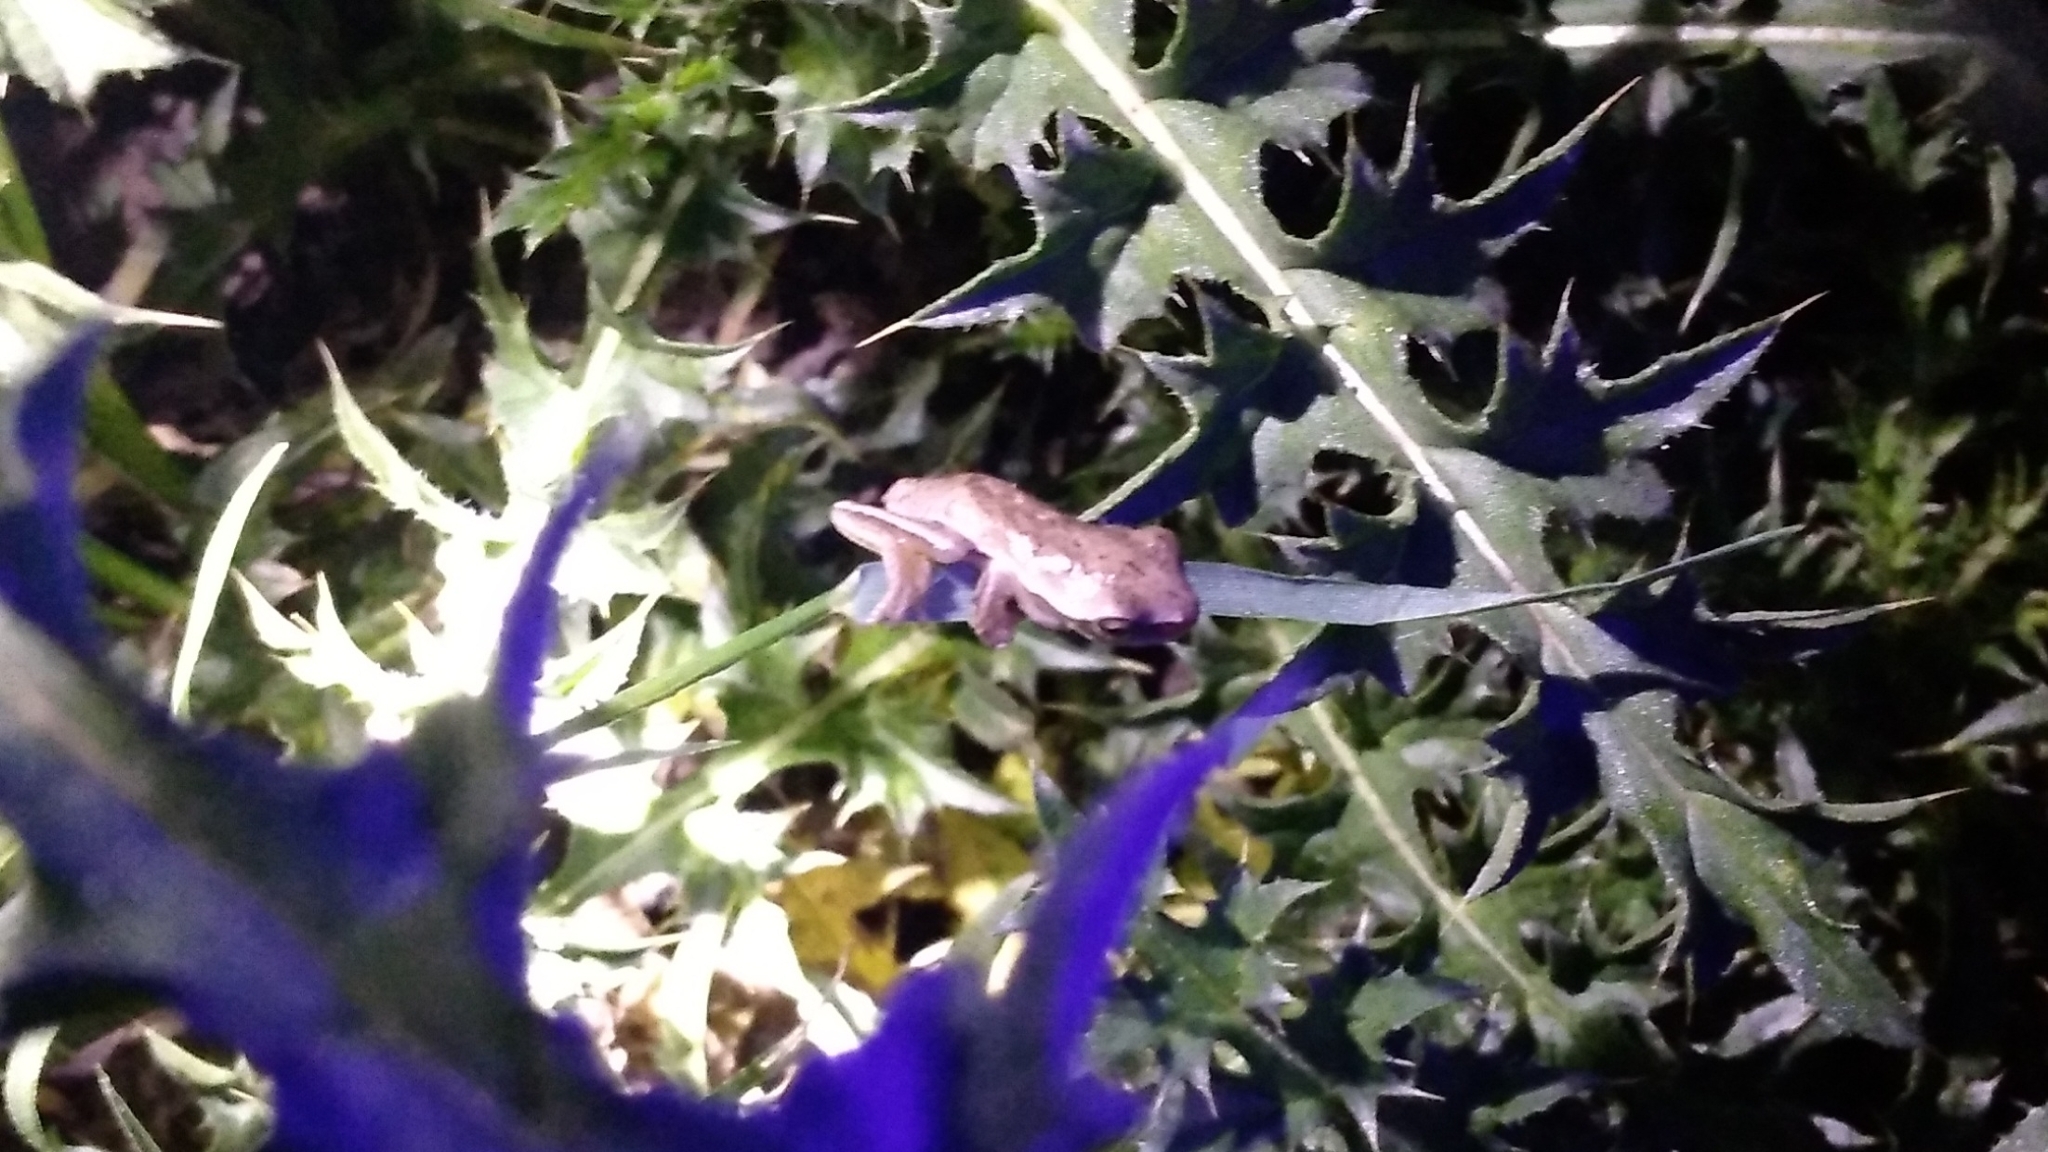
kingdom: Animalia
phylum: Chordata
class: Amphibia
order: Anura
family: Hylidae
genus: Boana
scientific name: Boana pulchella
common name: Montevideo treefrog
